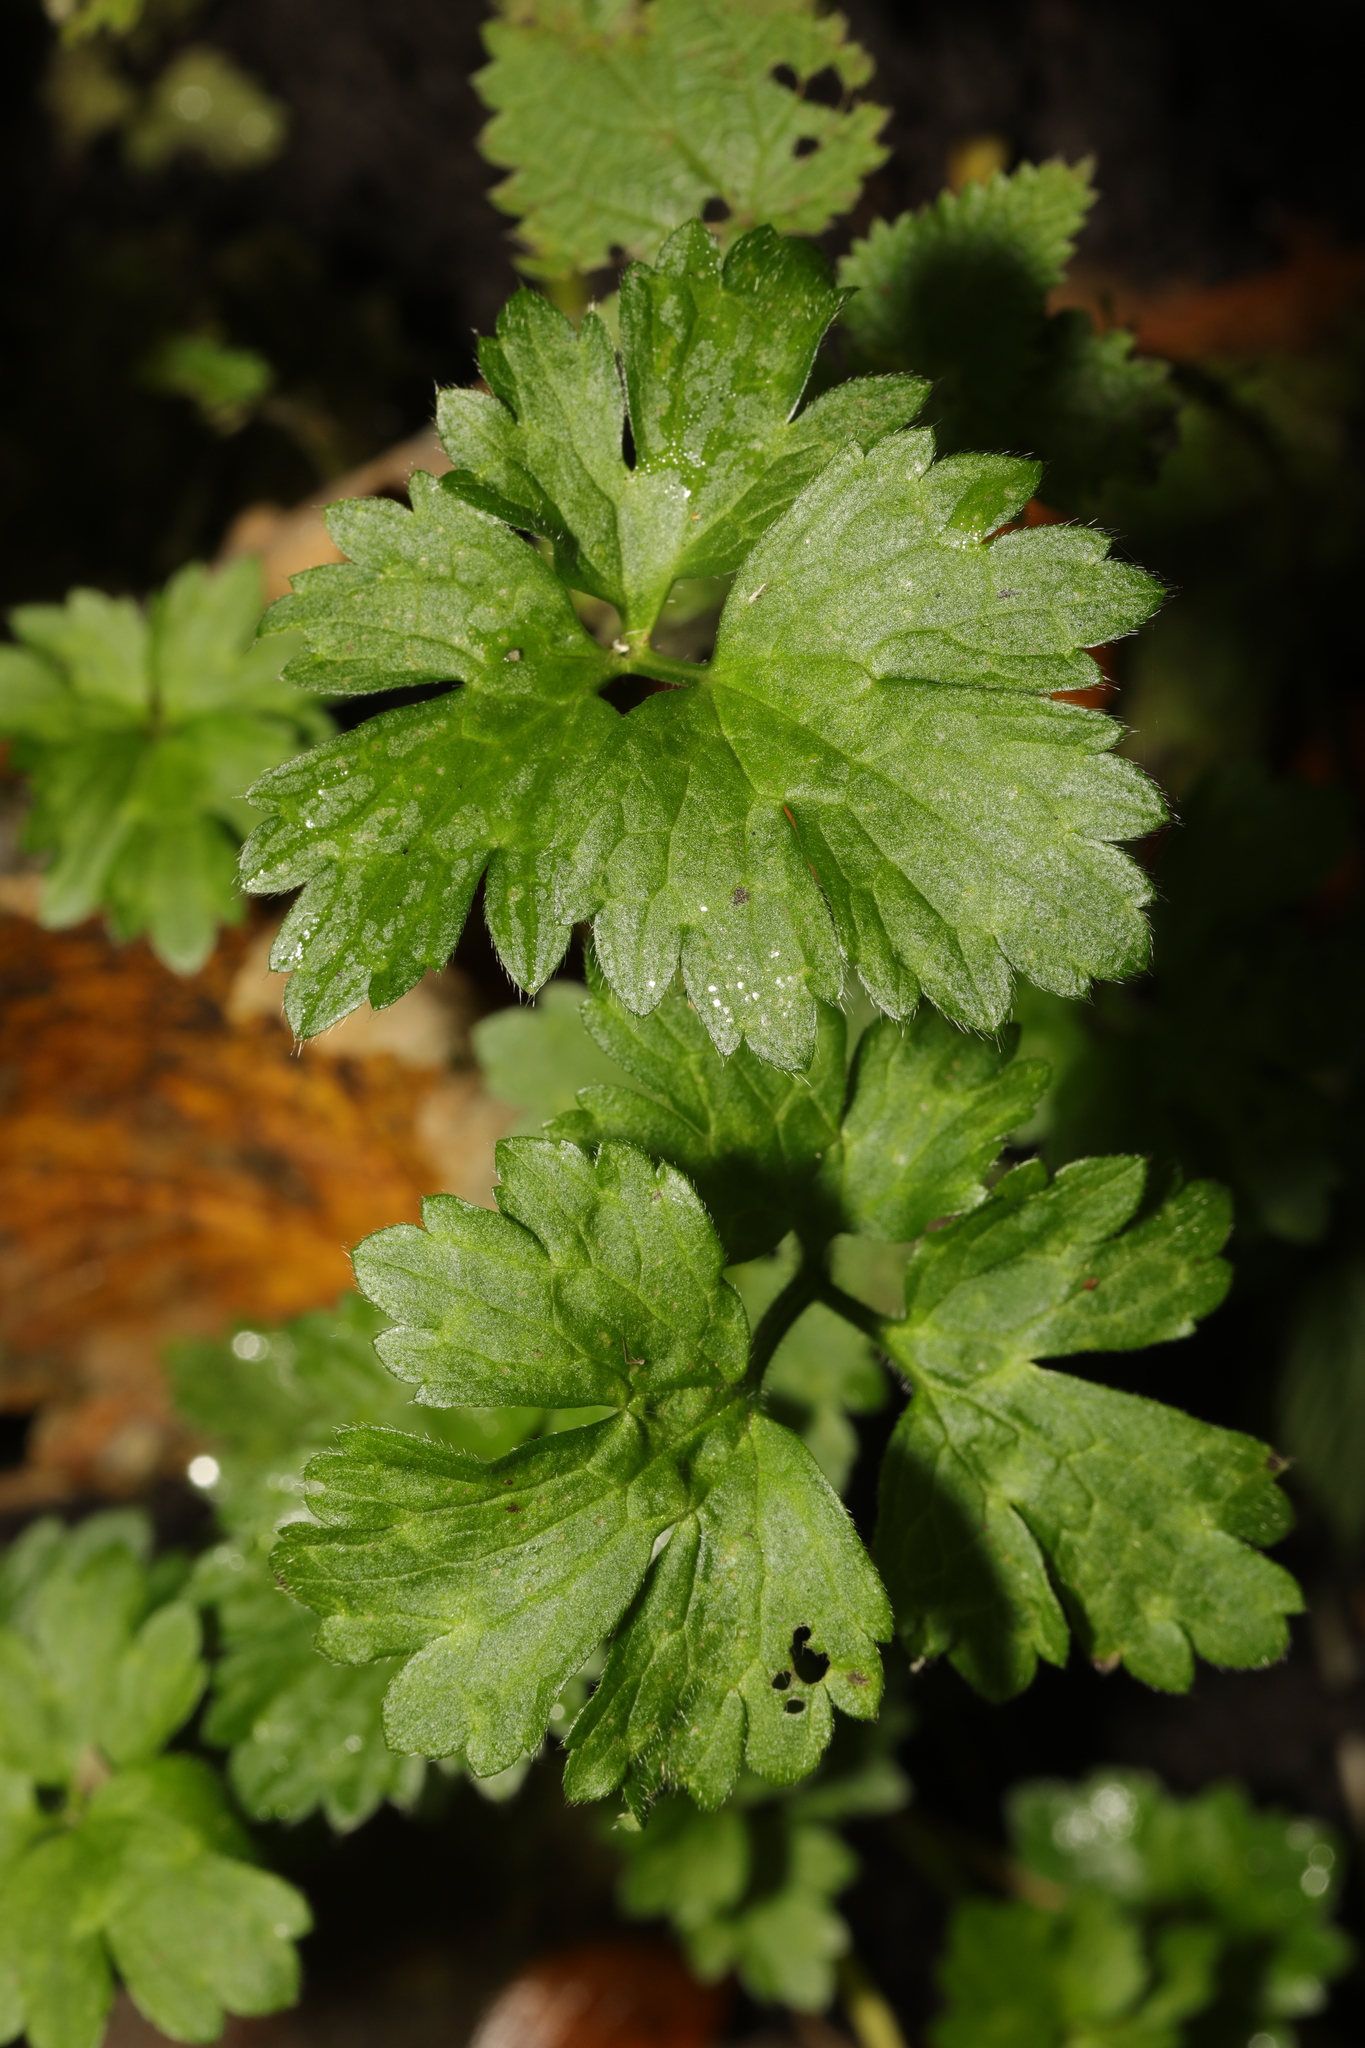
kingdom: Plantae
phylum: Tracheophyta
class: Magnoliopsida
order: Ranunculales
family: Ranunculaceae
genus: Ranunculus
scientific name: Ranunculus repens
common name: Creeping buttercup
